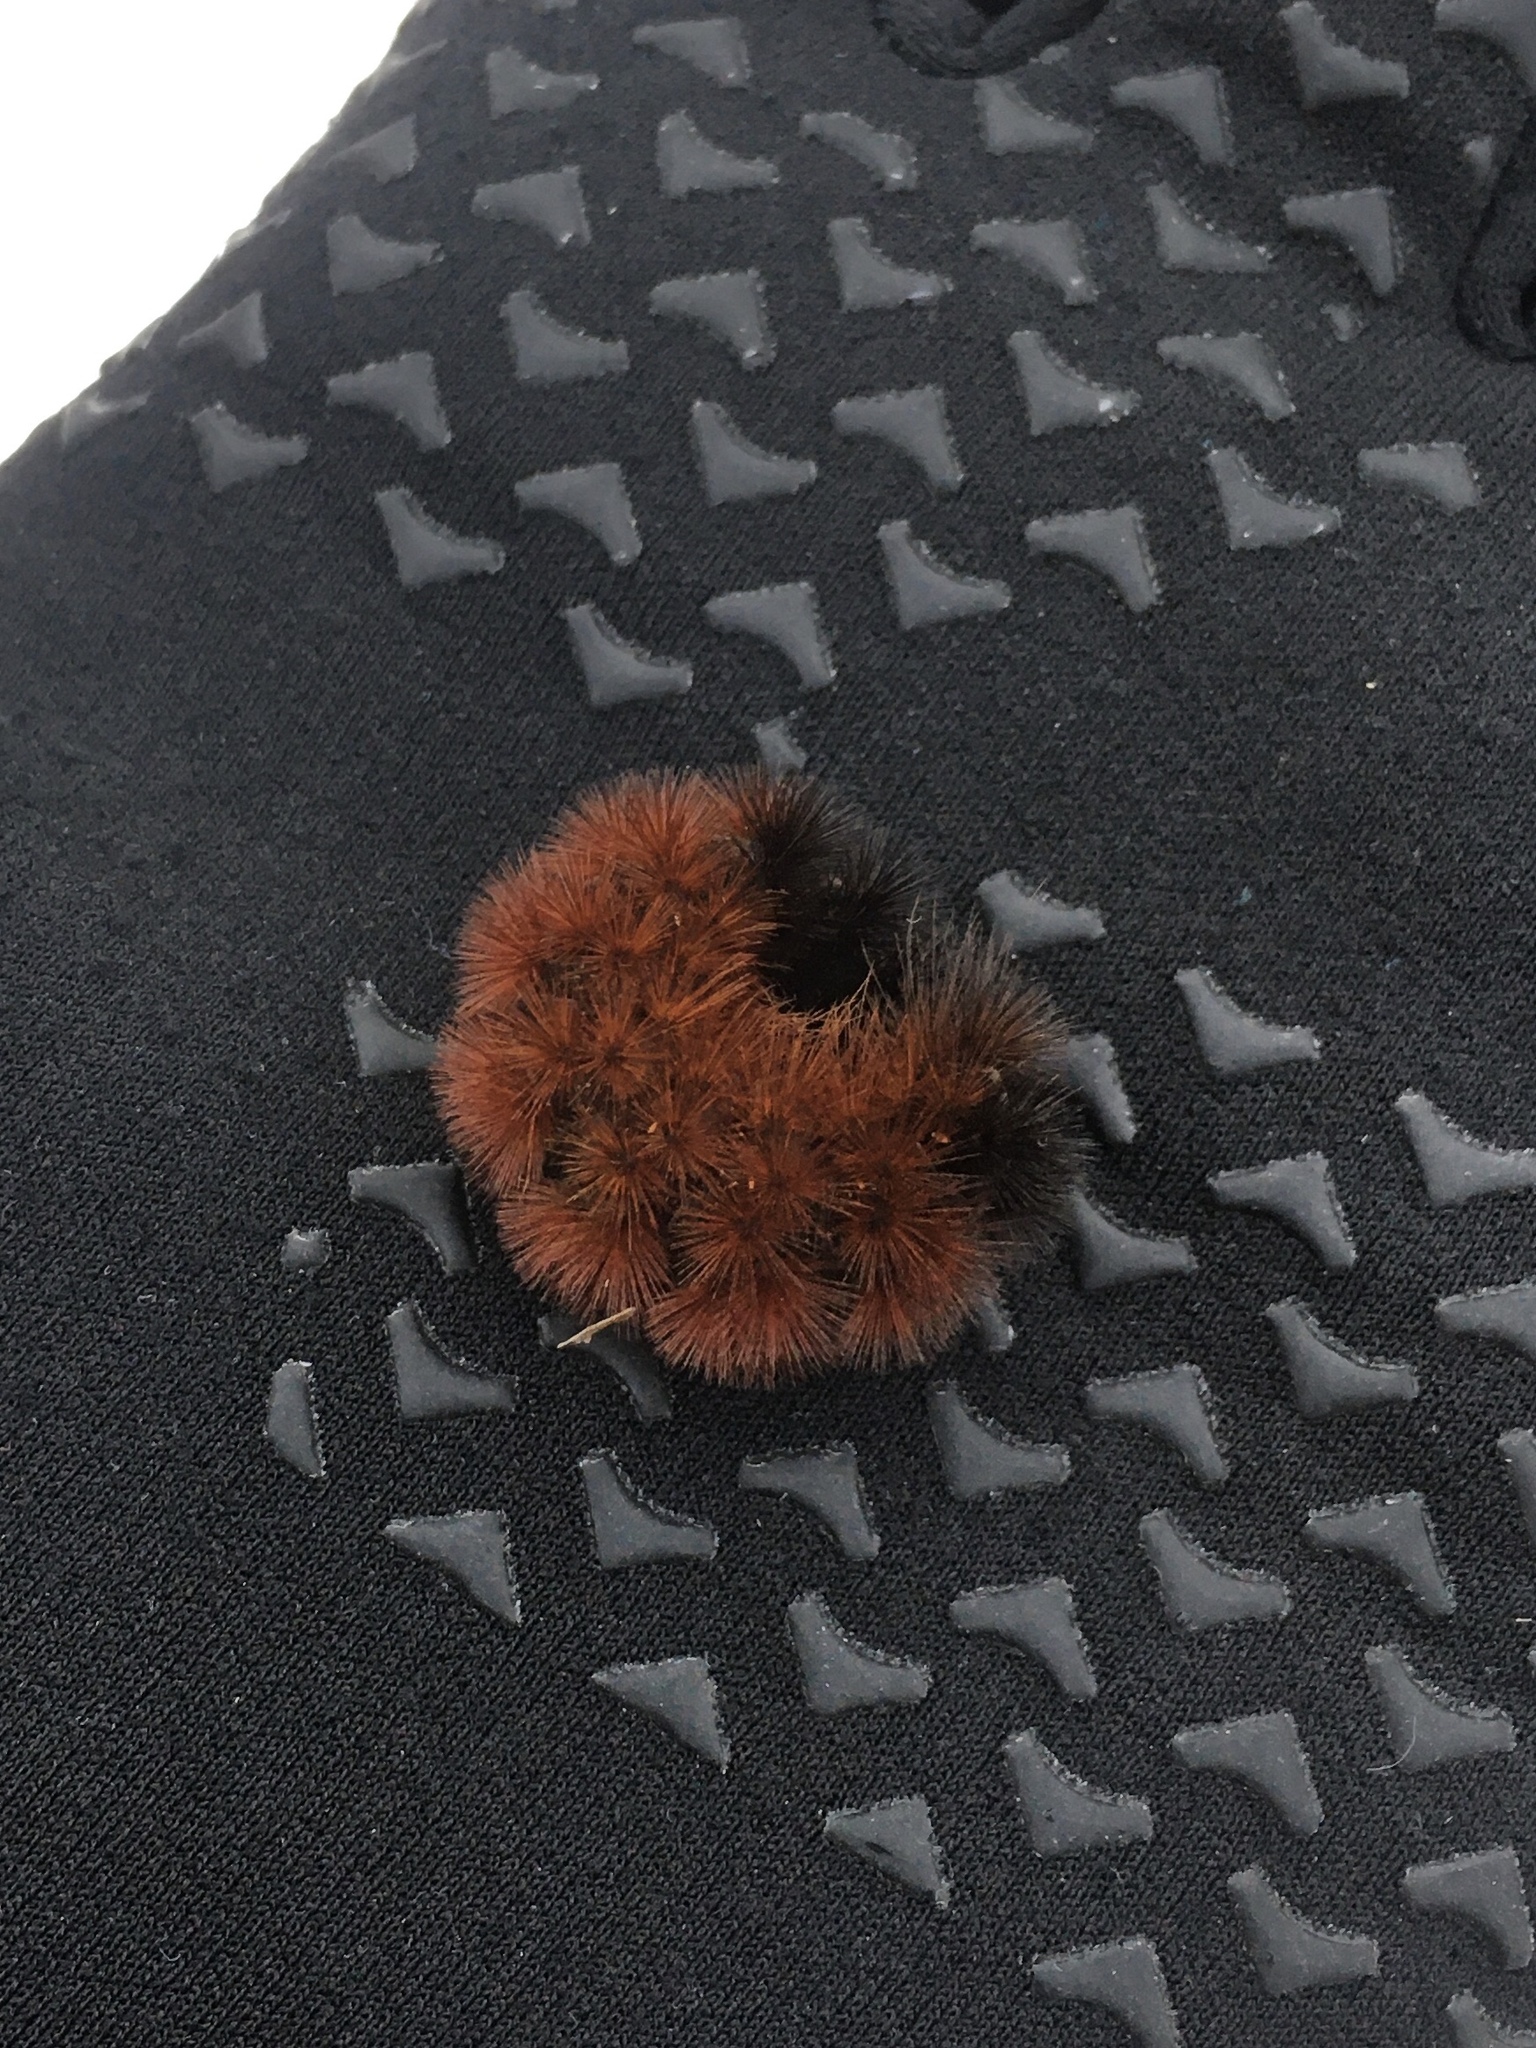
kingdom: Animalia
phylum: Arthropoda
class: Insecta
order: Lepidoptera
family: Erebidae
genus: Pyrrharctia
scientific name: Pyrrharctia isabella
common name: Isabella tiger moth
